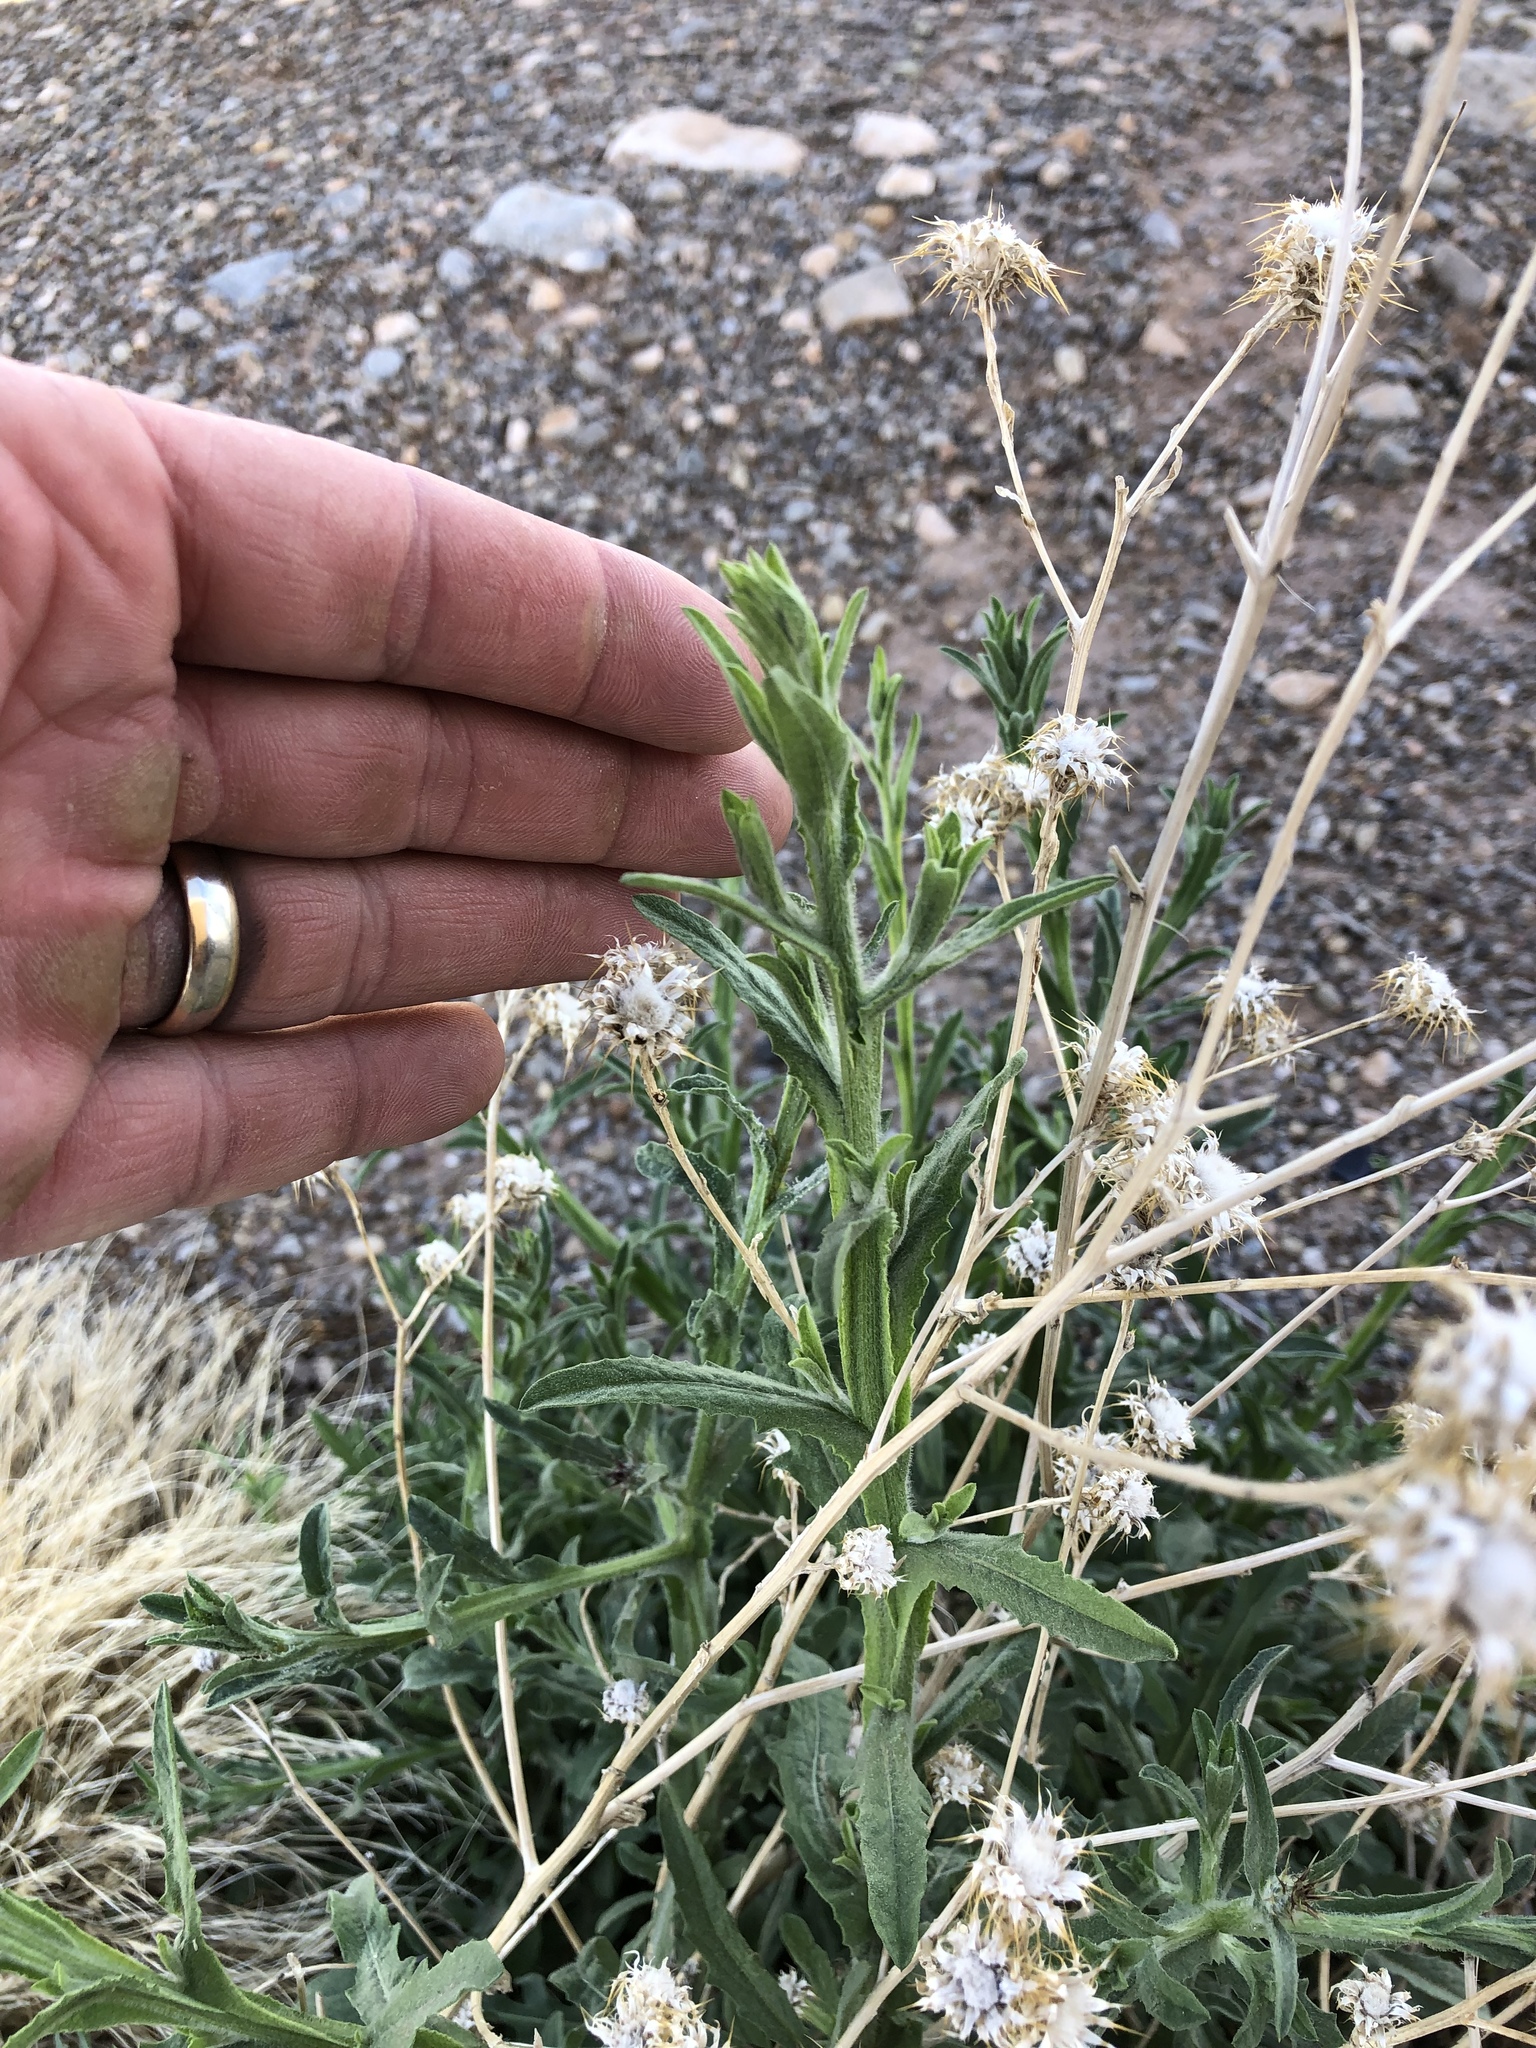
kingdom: Plantae
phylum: Tracheophyta
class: Magnoliopsida
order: Asterales
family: Asteraceae
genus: Centaurea
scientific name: Centaurea melitensis
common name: Maltese star-thistle
